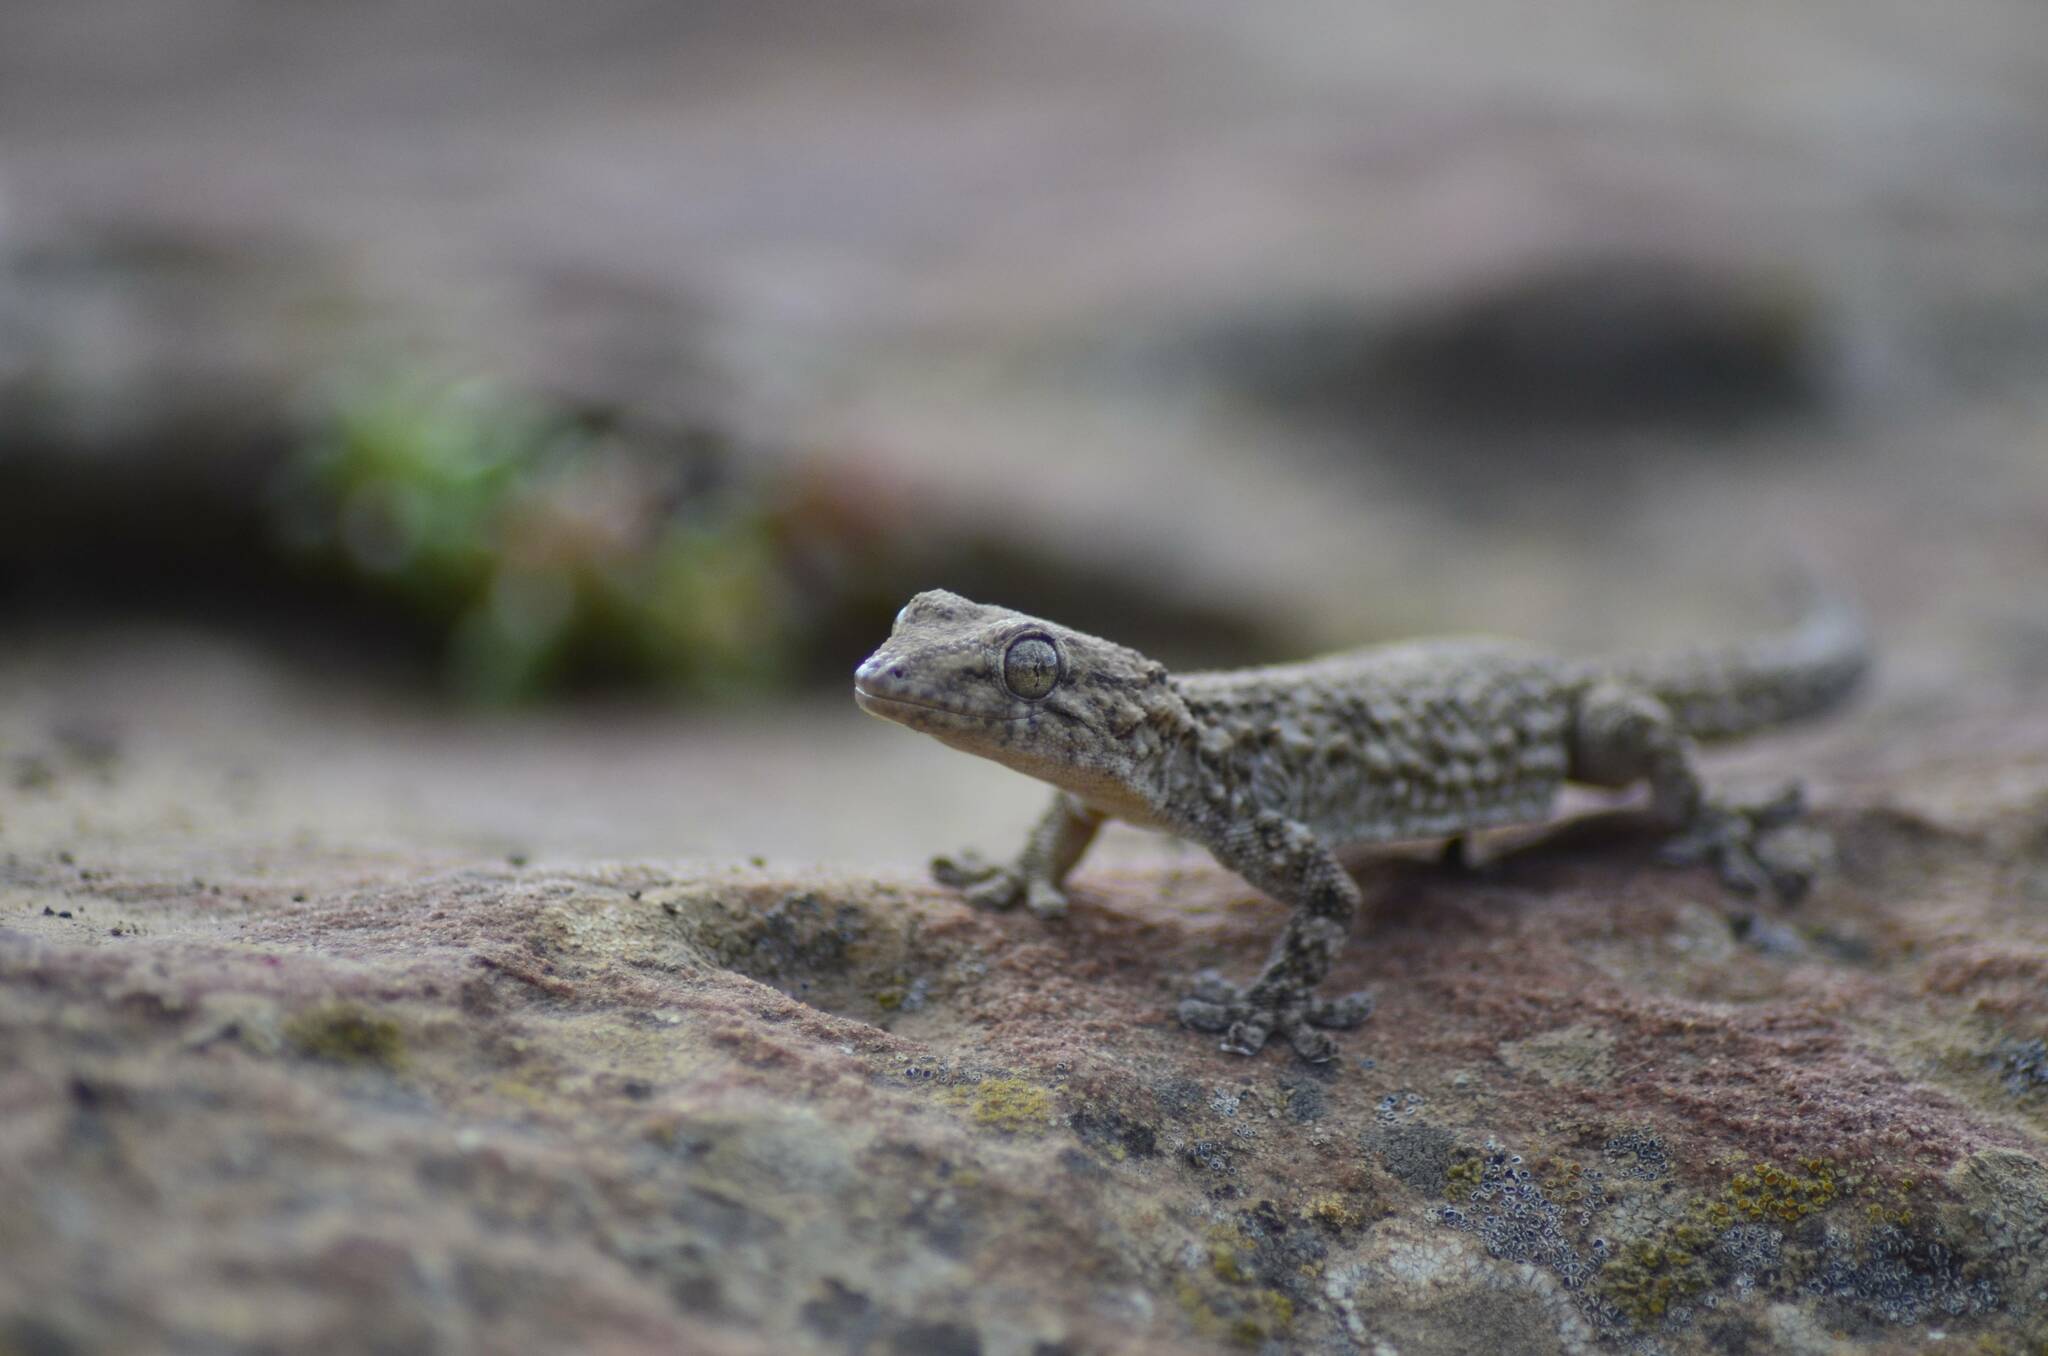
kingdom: Animalia
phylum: Chordata
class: Squamata
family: Phyllodactylidae
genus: Tarentola
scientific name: Tarentola mauritanica
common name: Moorish gecko
